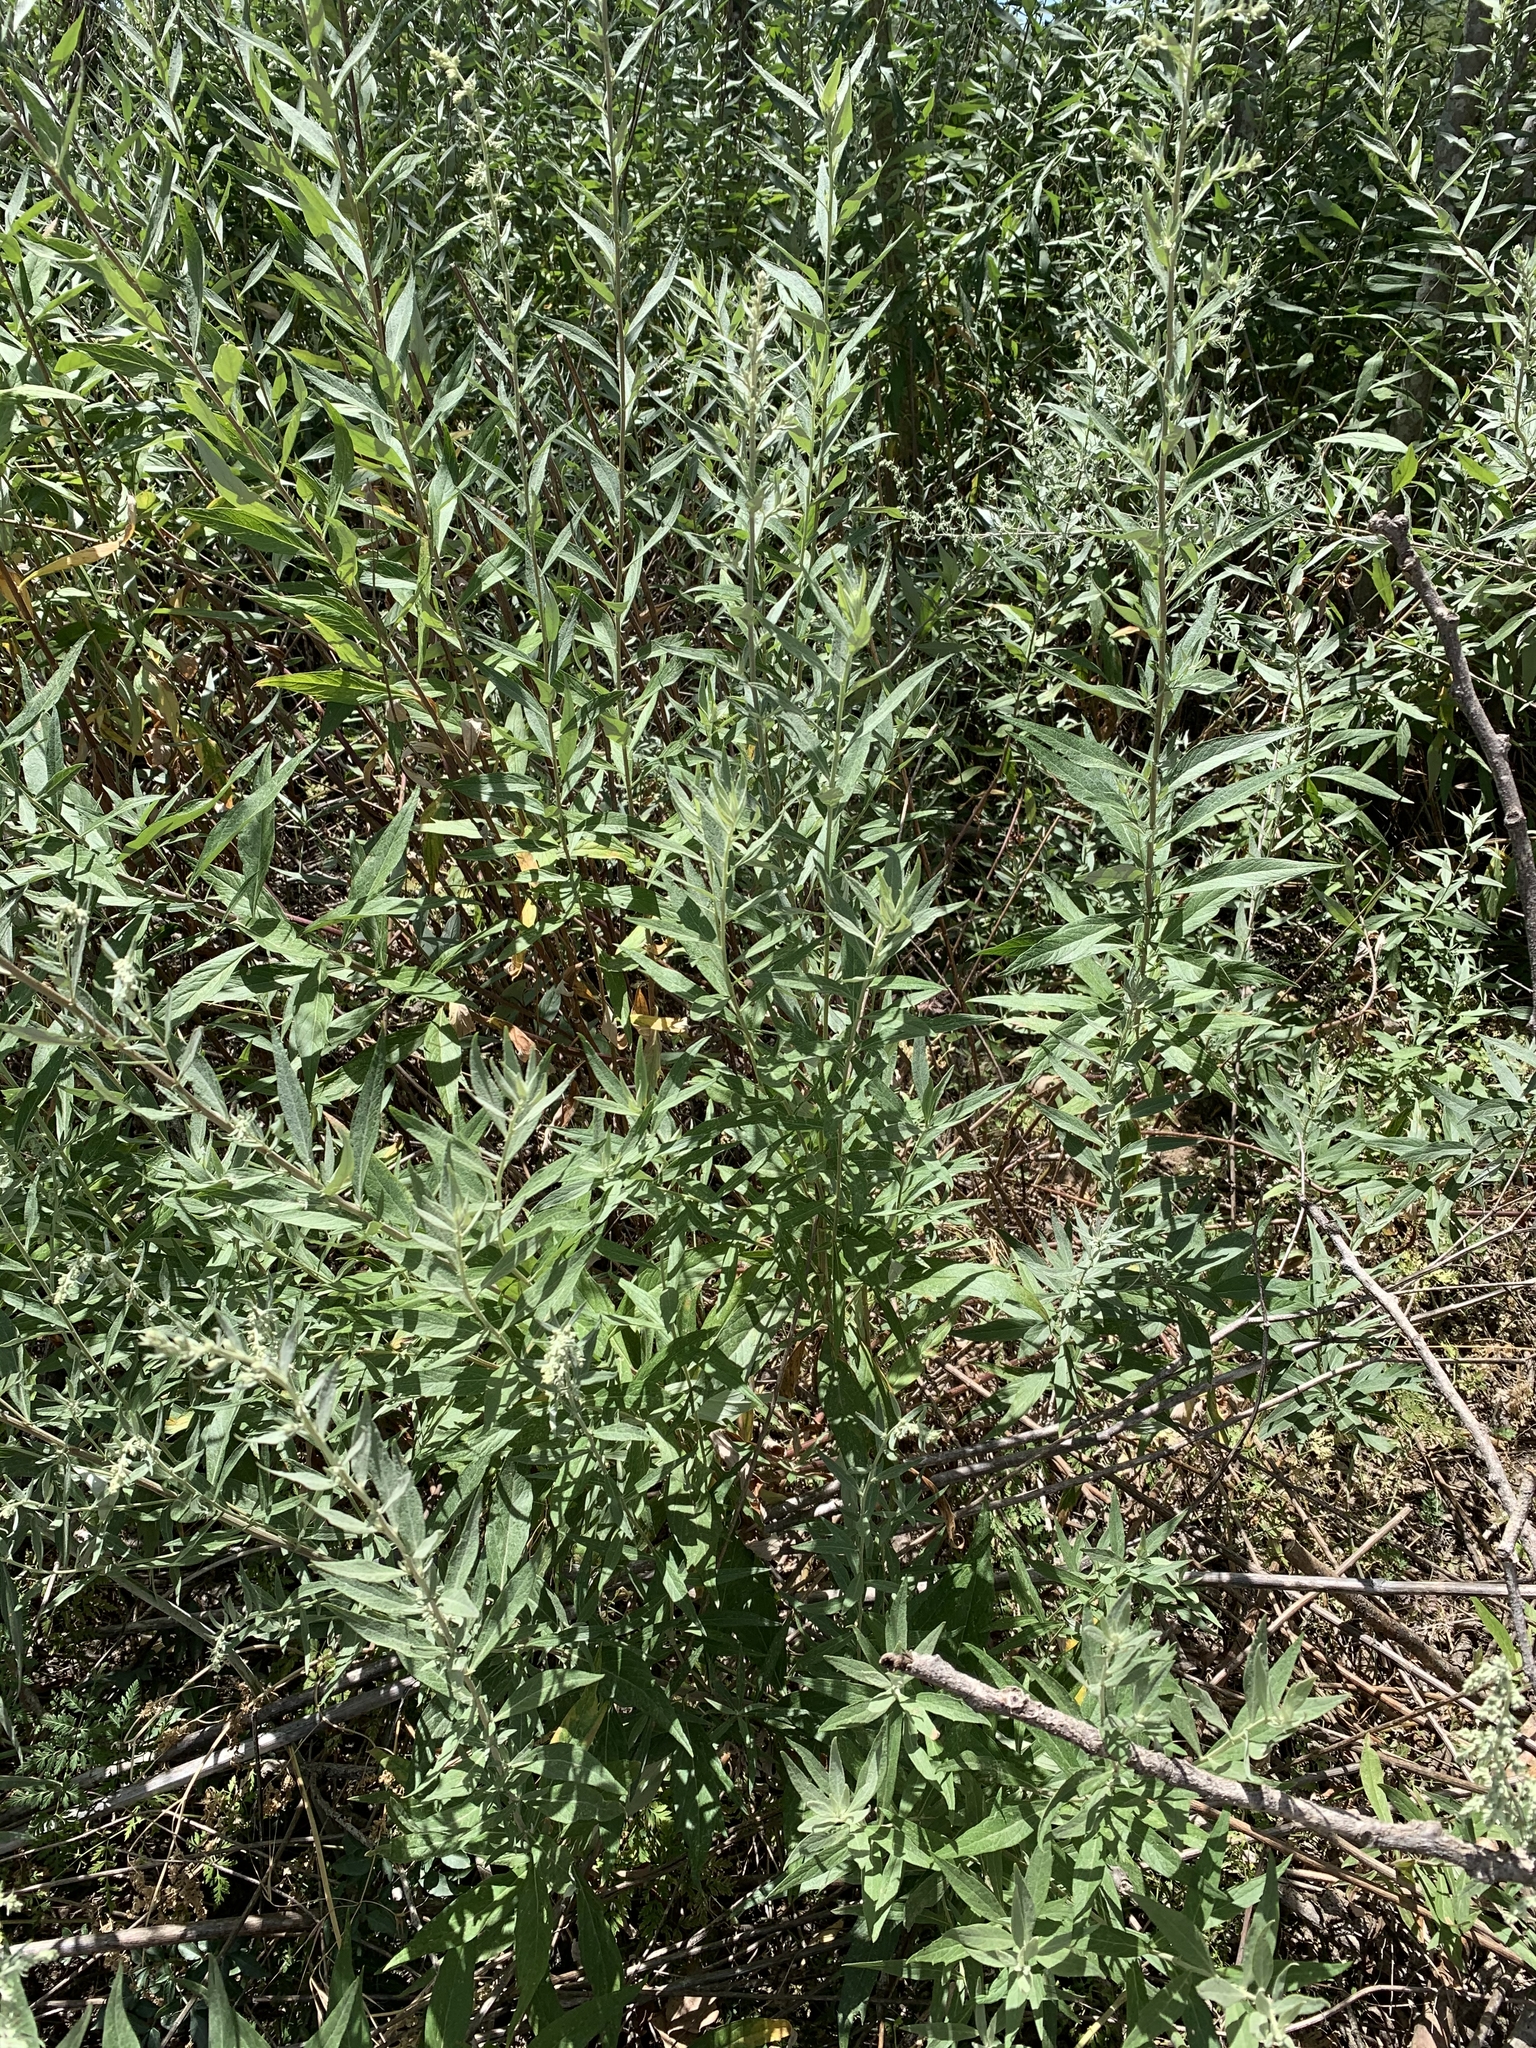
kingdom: Plantae
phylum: Tracheophyta
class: Magnoliopsida
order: Asterales
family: Asteraceae
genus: Artemisia
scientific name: Artemisia douglasiana
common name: Northwest mugwort
